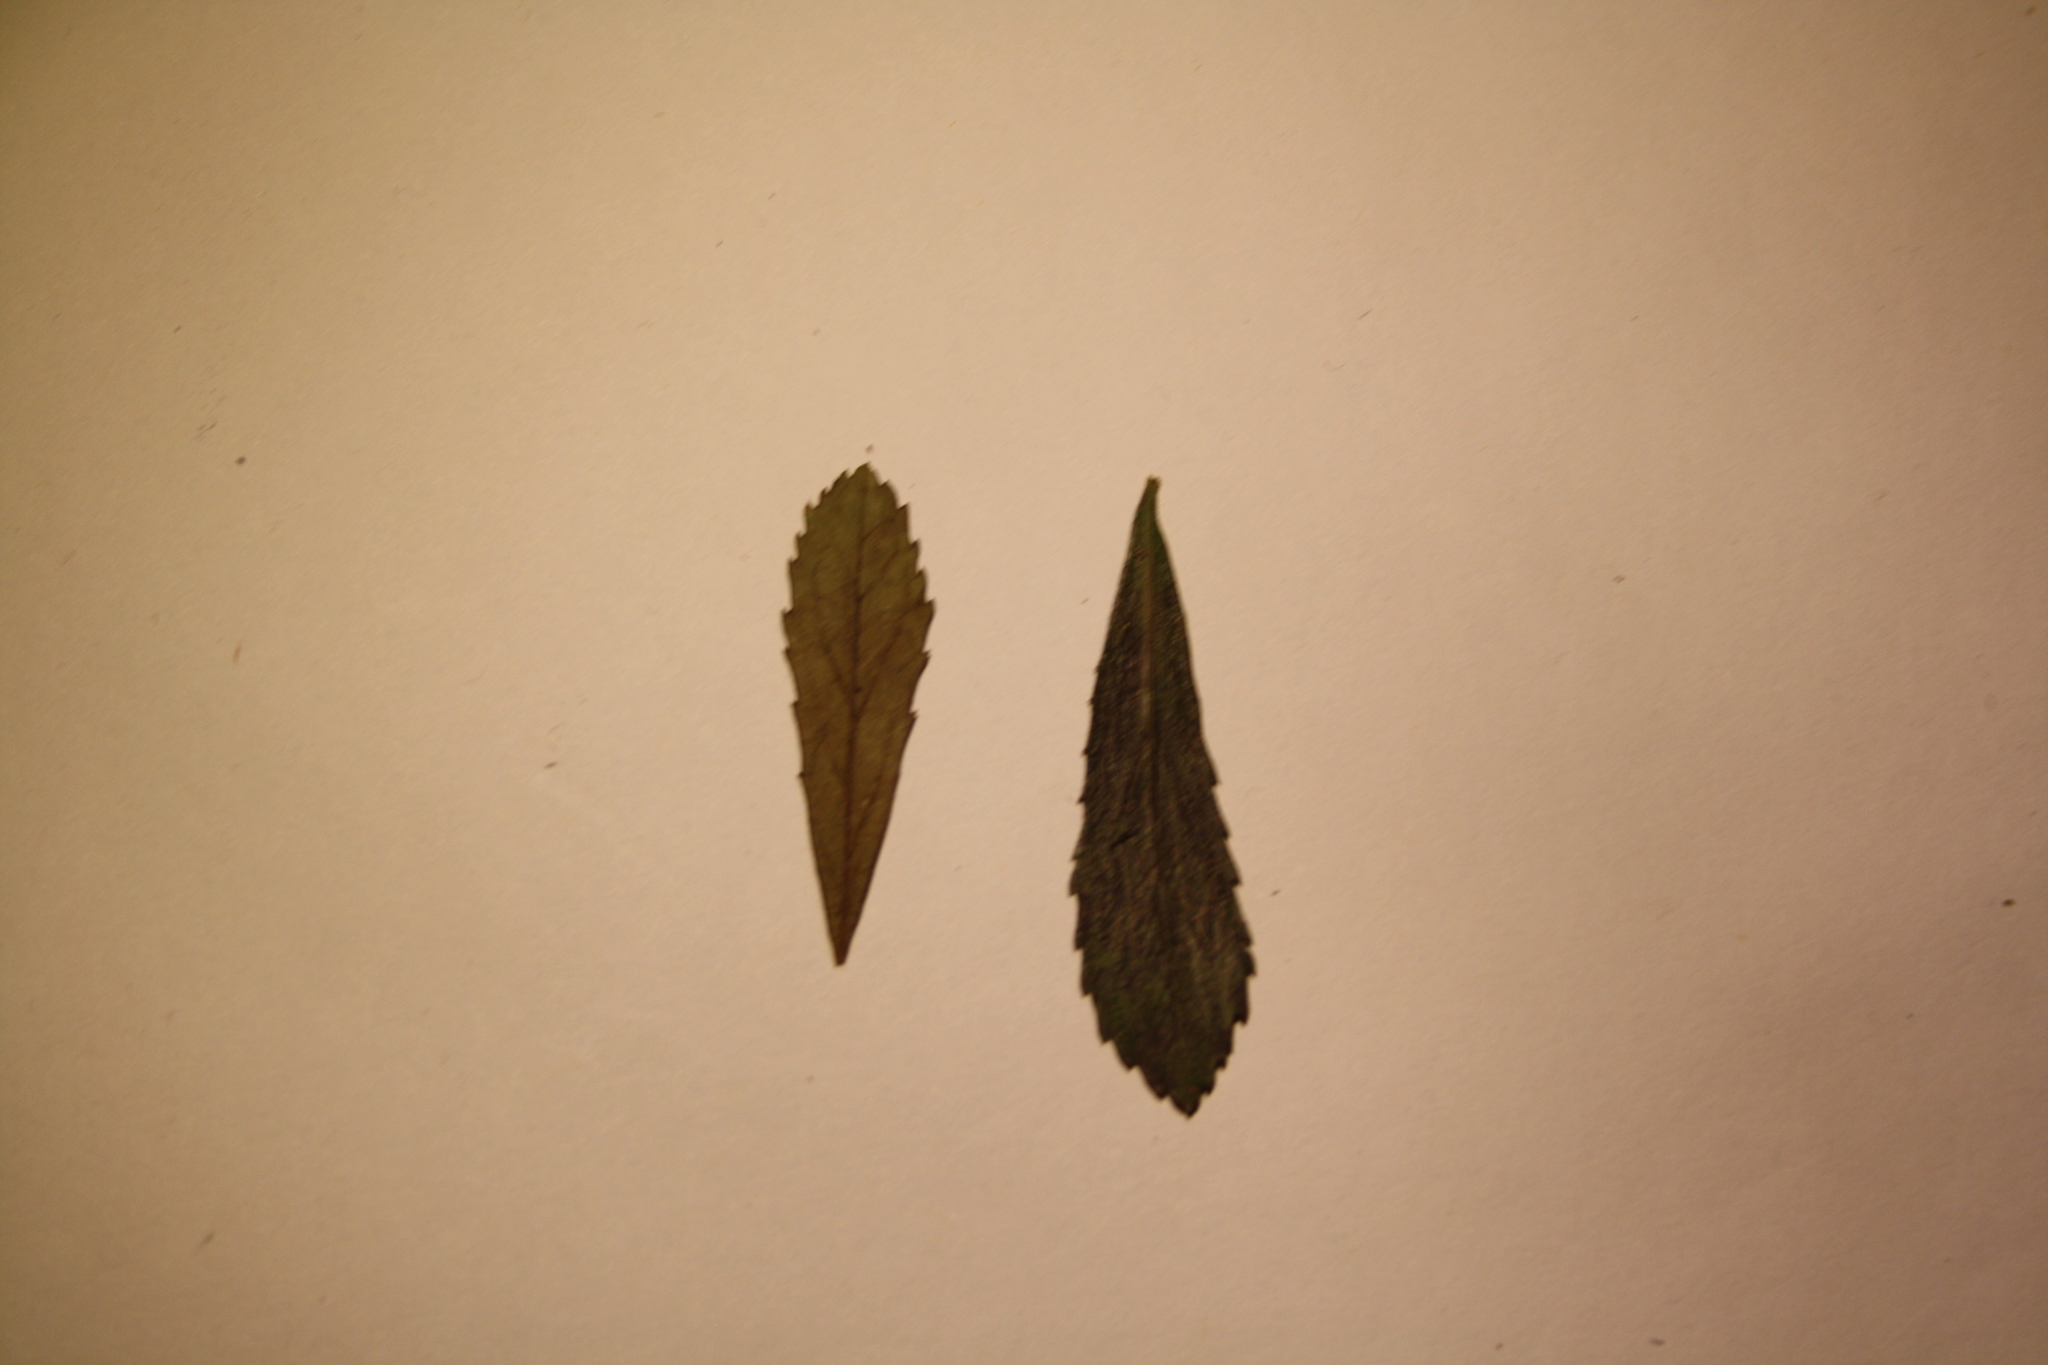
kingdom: Plantae
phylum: Tracheophyta
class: Magnoliopsida
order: Ericales
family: Ericaceae
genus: Chimaphila
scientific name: Chimaphila umbellata
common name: Pipsissewa
